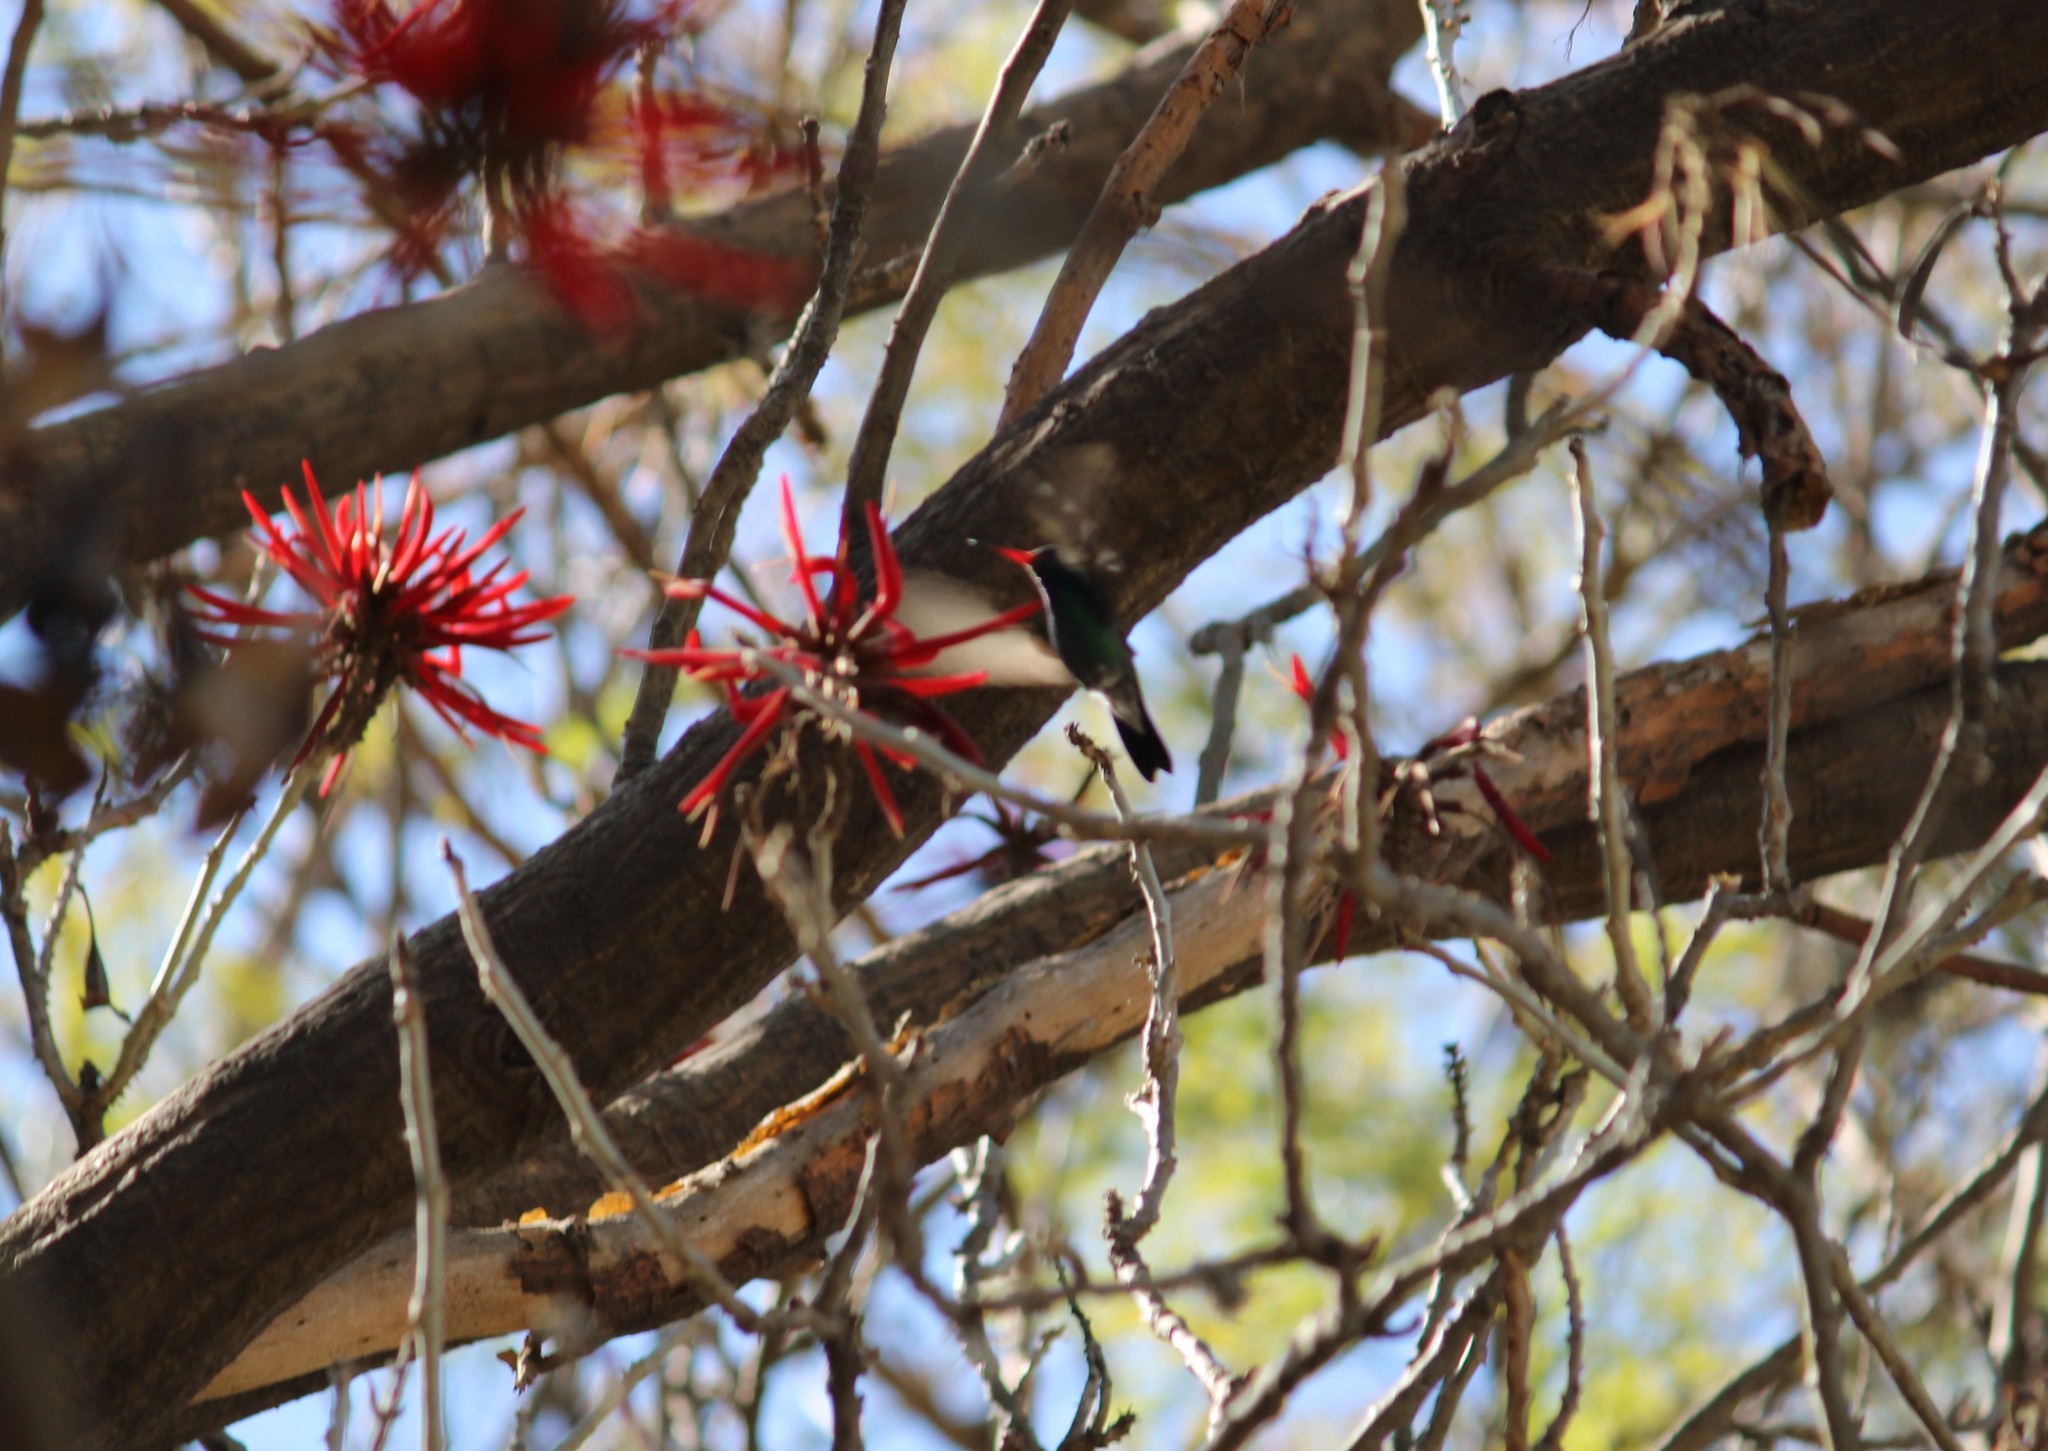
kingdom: Animalia
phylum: Chordata
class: Aves
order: Apodiformes
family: Trochilidae
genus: Cynanthus
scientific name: Cynanthus latirostris
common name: Broad-billed hummingbird
